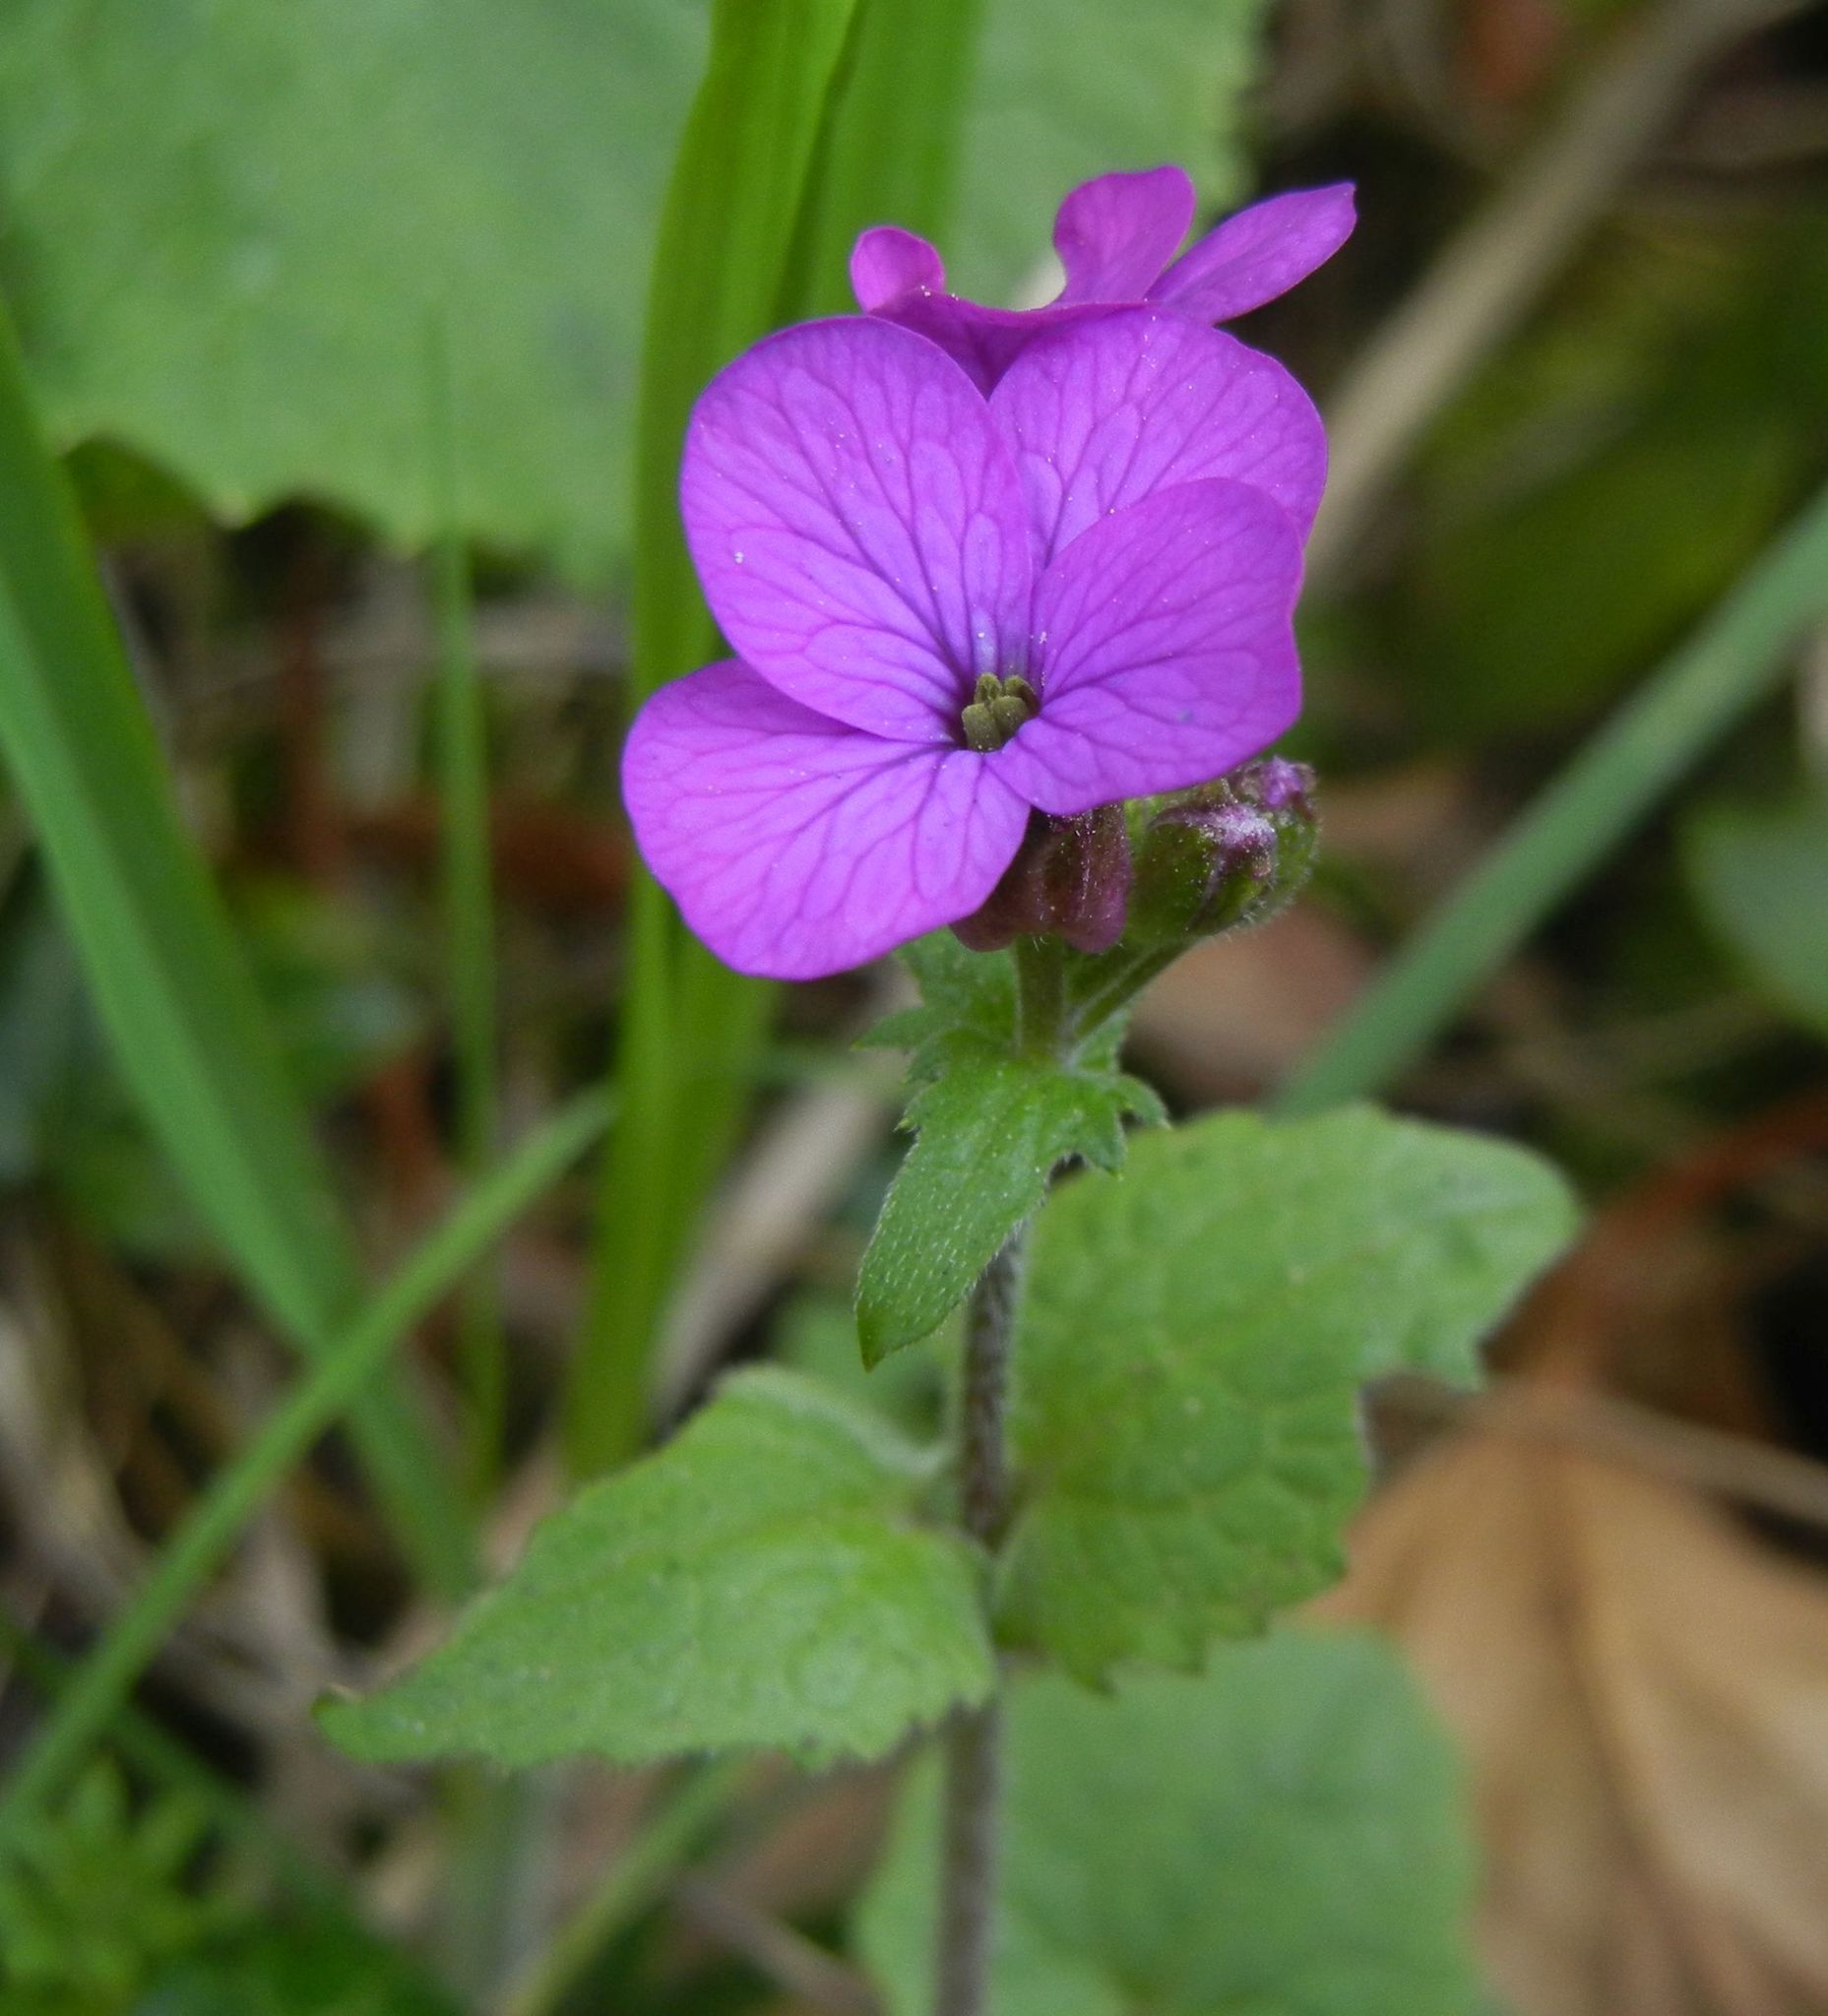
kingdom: Plantae
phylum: Tracheophyta
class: Magnoliopsida
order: Brassicales
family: Brassicaceae
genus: Lunaria
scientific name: Lunaria annua
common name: Honesty
